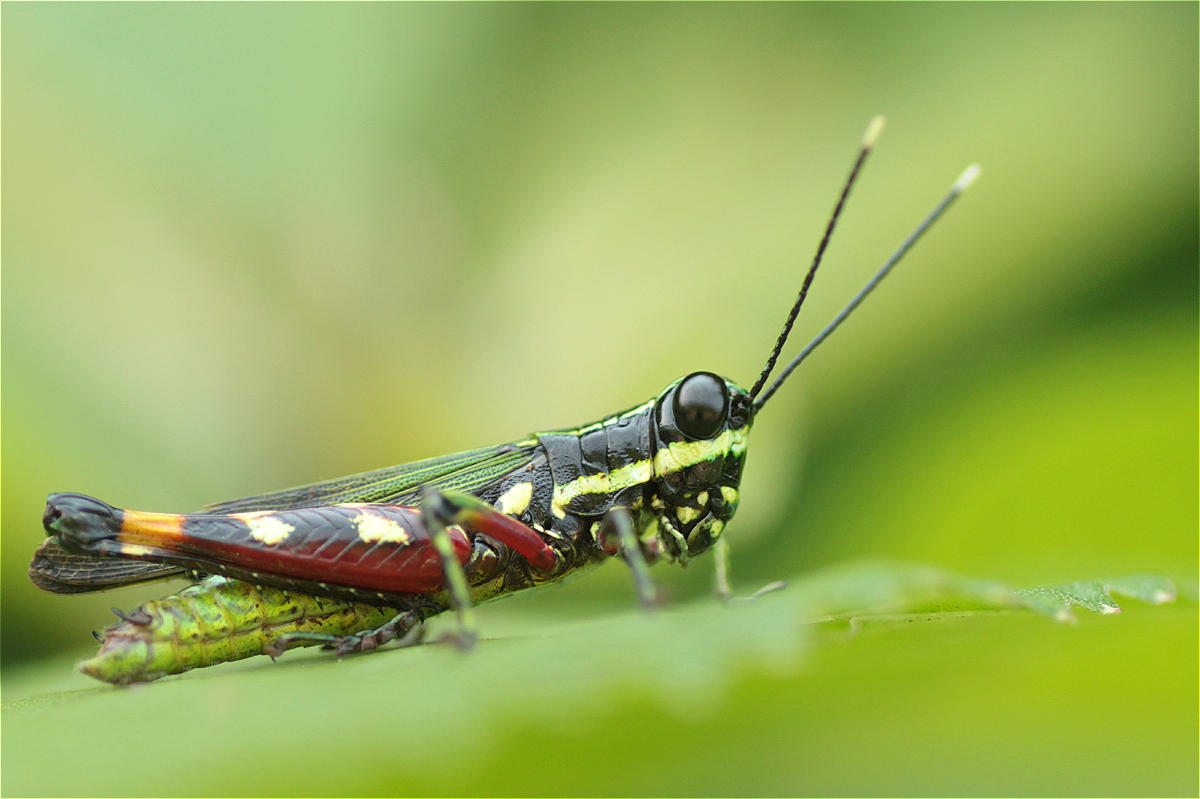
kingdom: Animalia
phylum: Arthropoda
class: Insecta
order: Orthoptera
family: Acrididae
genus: Tetrataenia
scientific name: Tetrataenia surinama
